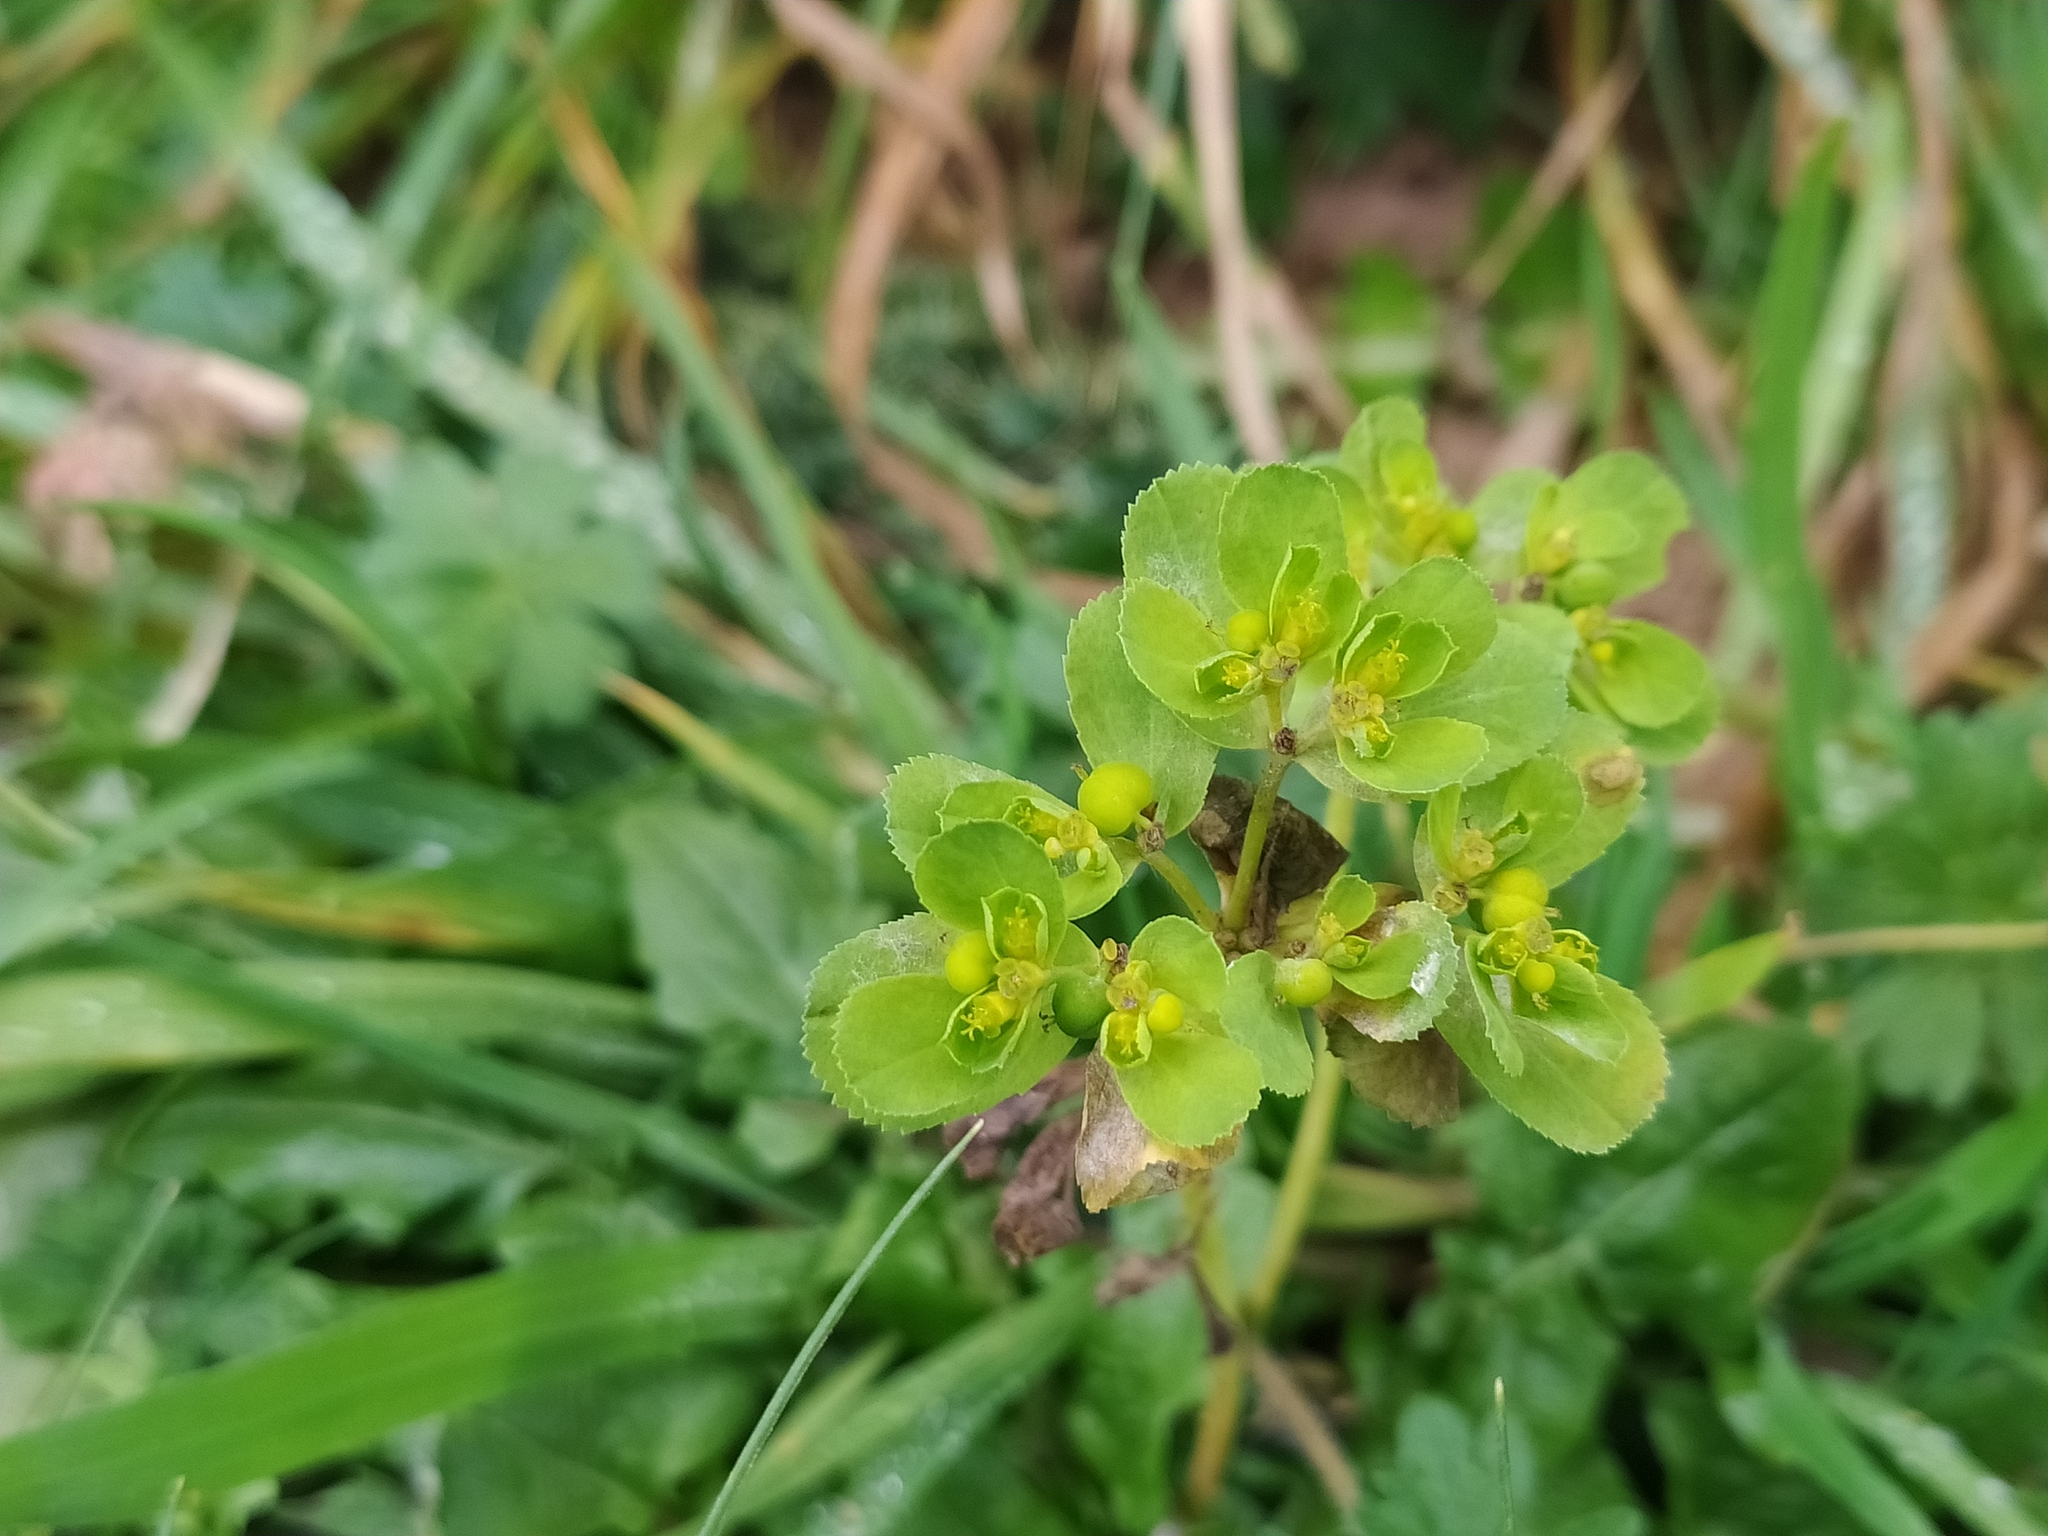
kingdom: Plantae
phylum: Tracheophyta
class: Magnoliopsida
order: Malpighiales
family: Euphorbiaceae
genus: Euphorbia
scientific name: Euphorbia helioscopia
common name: Sun spurge
